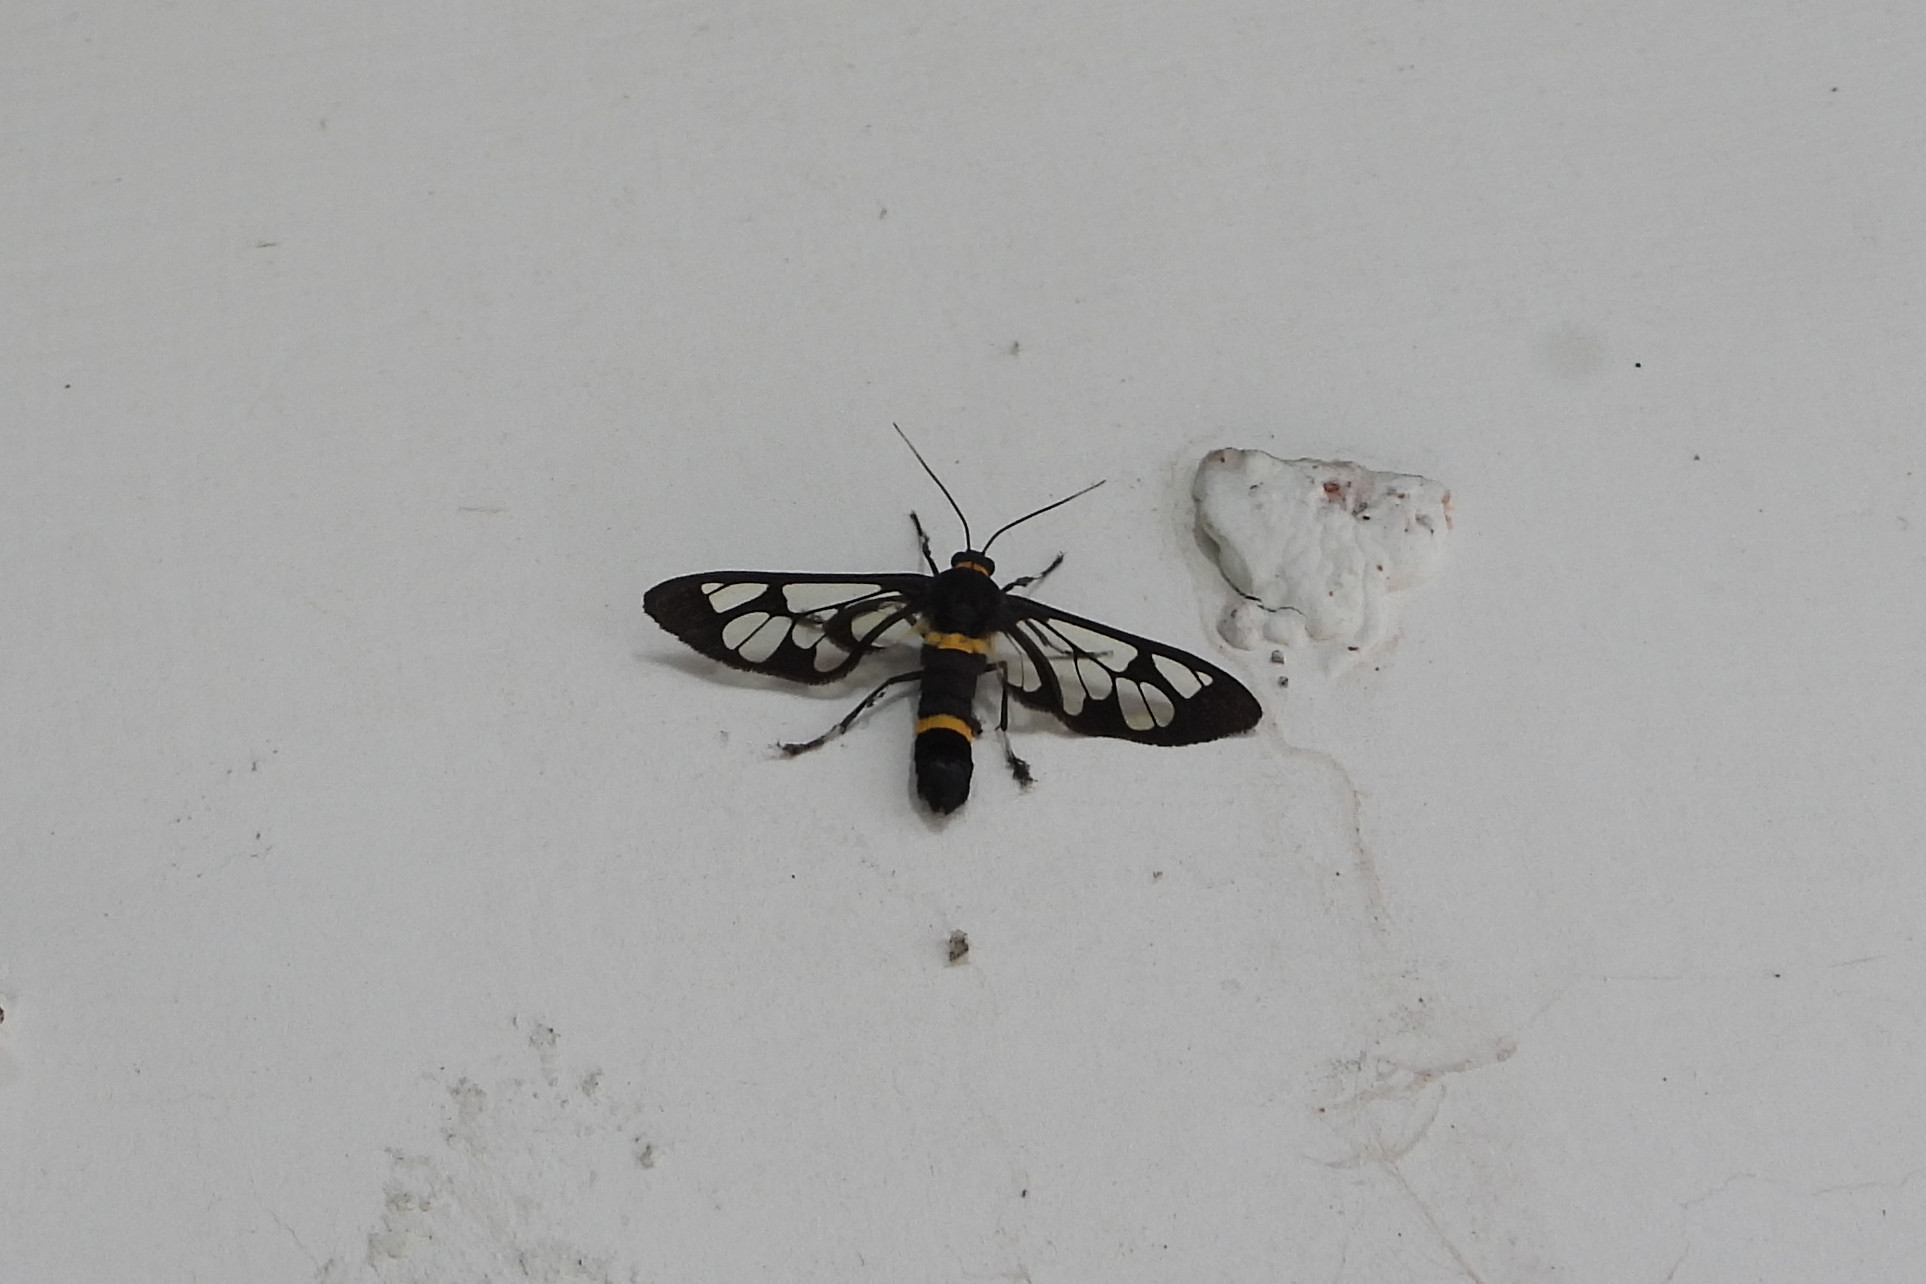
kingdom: Animalia
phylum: Arthropoda
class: Insecta
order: Lepidoptera
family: Erebidae
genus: Syntomoides
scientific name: Syntomoides imaon
